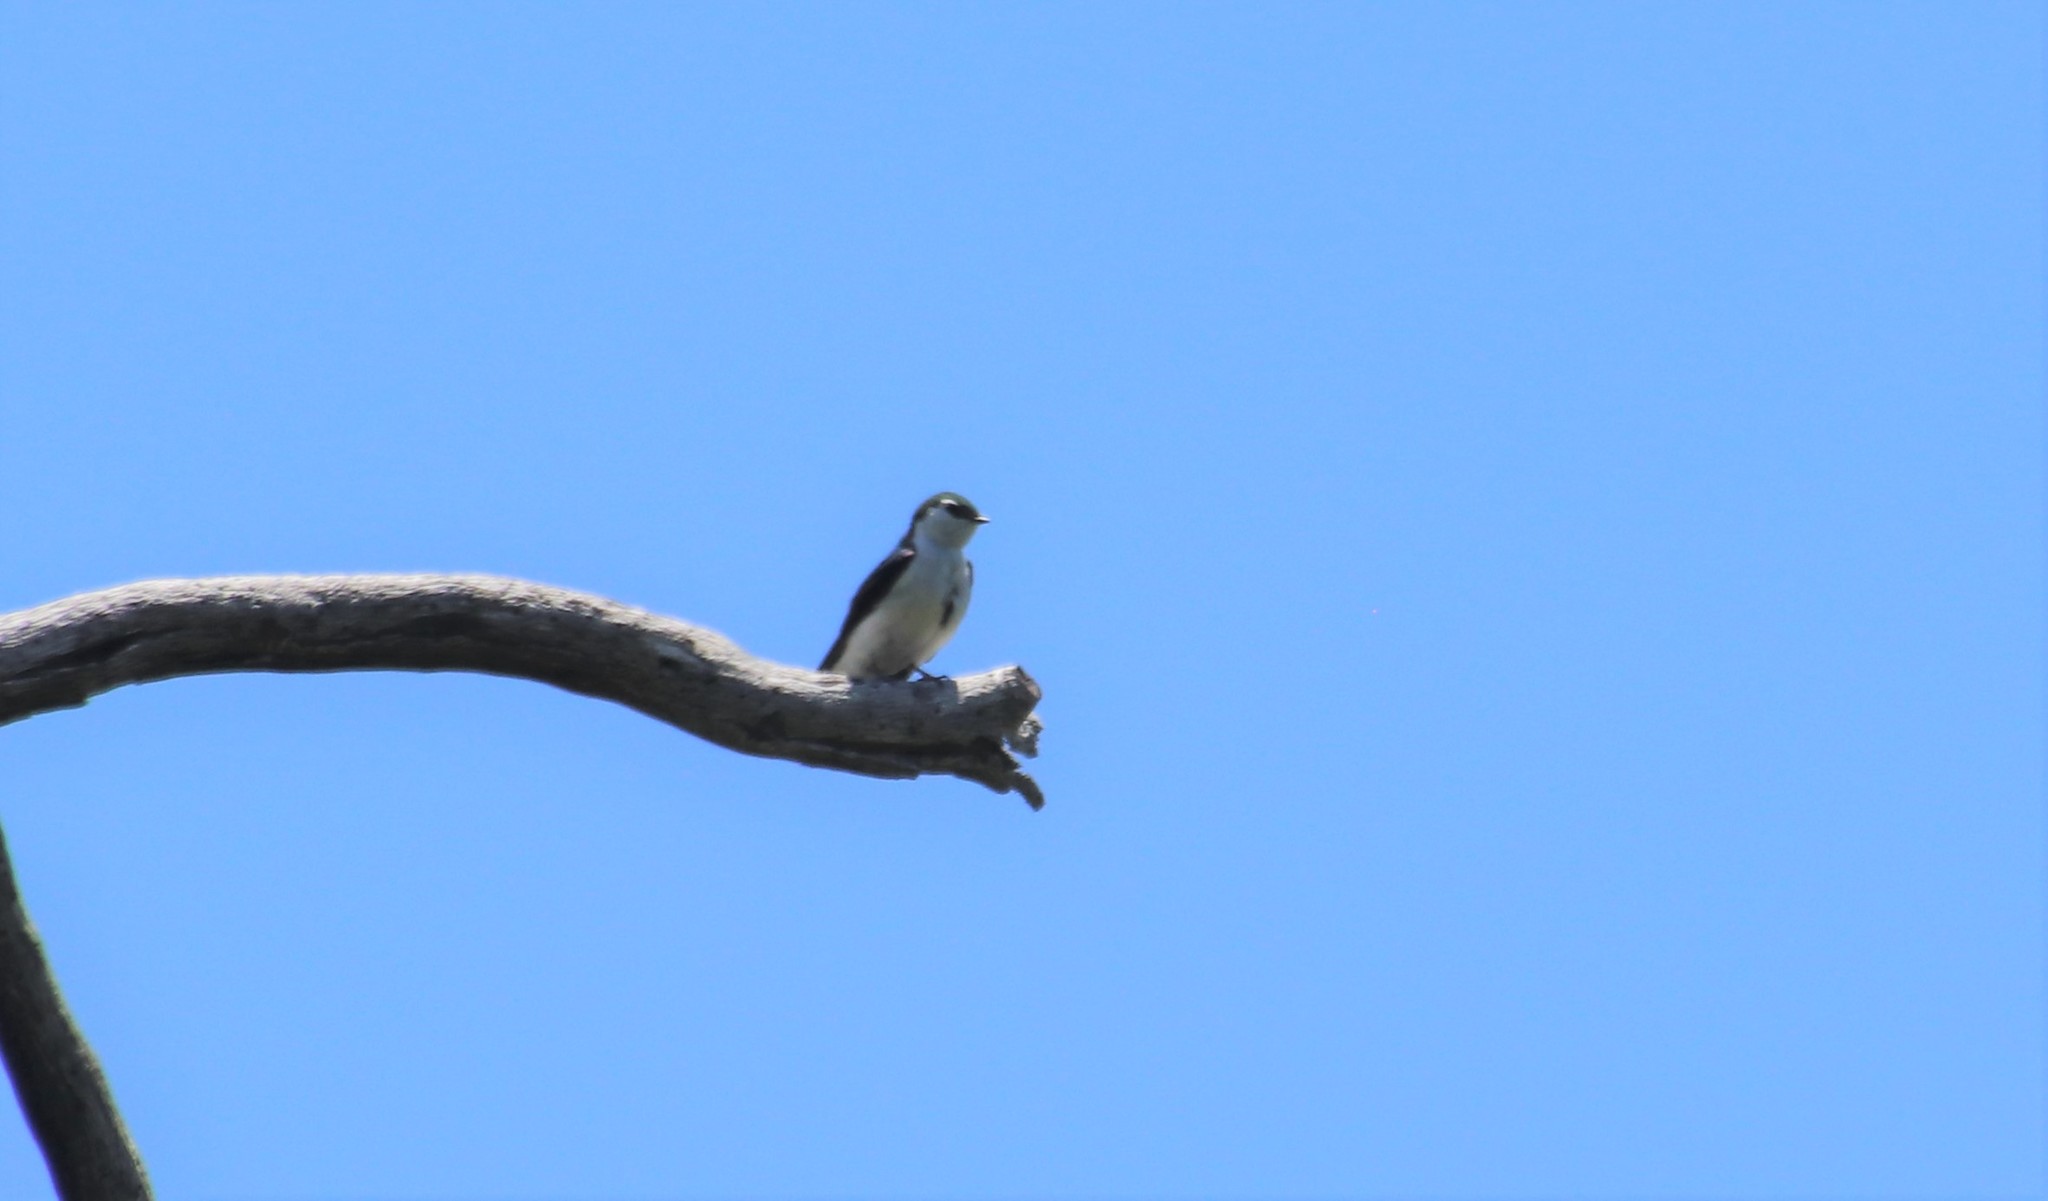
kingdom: Animalia
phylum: Chordata
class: Aves
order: Passeriformes
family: Hirundinidae
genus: Tachycineta
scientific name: Tachycineta thalassina
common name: Violet-green swallow
